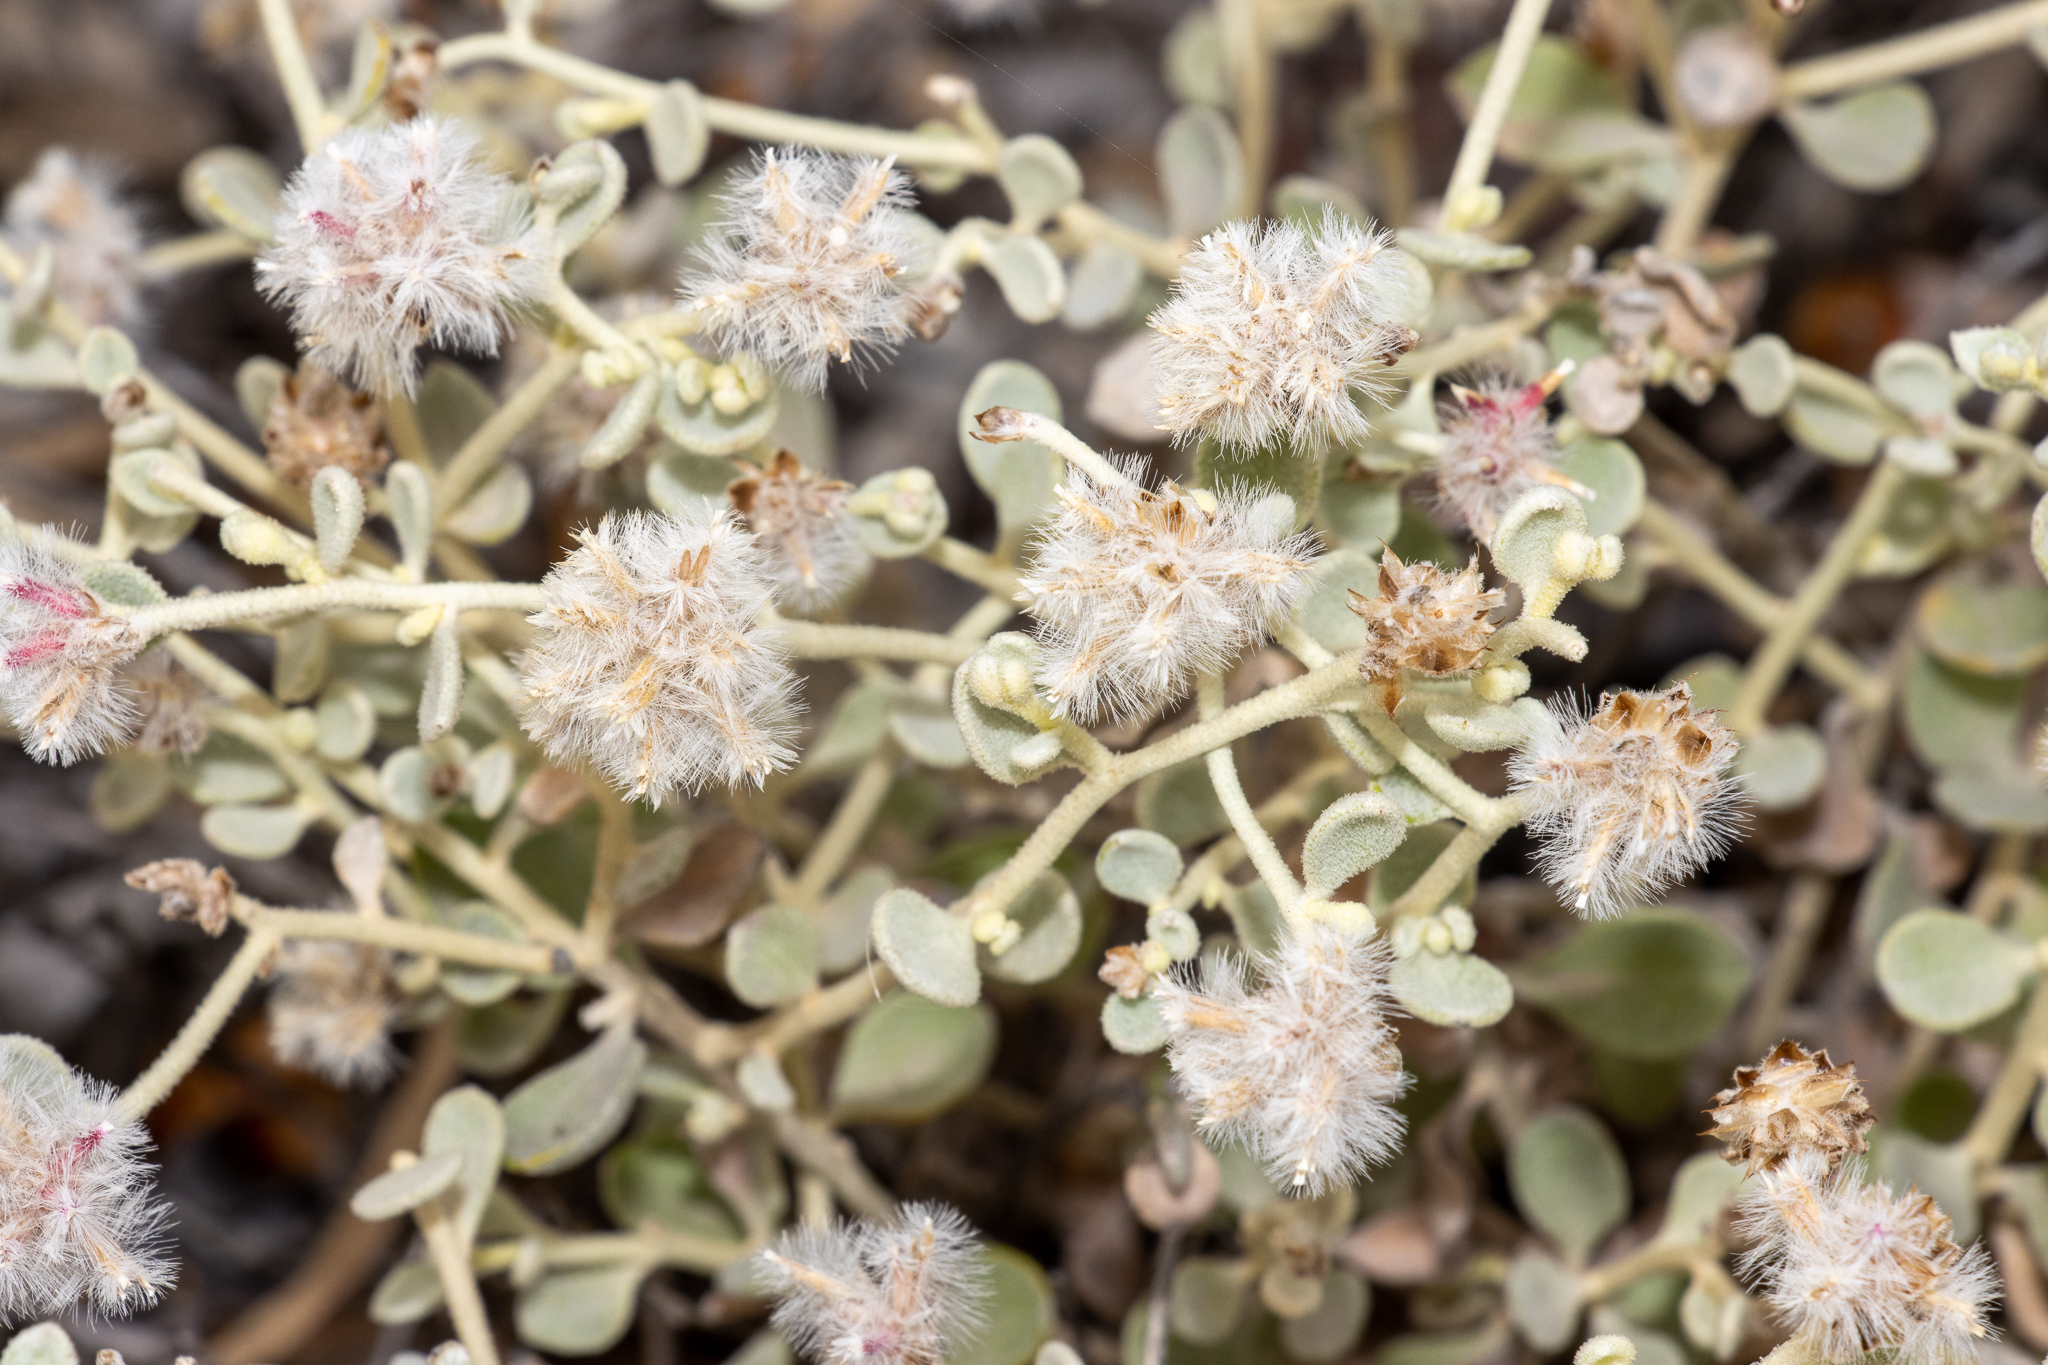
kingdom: Plantae
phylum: Tracheophyta
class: Magnoliopsida
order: Caryophyllales
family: Amaranthaceae
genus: Ptilotus
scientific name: Ptilotus obovatus
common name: Cottonbush
